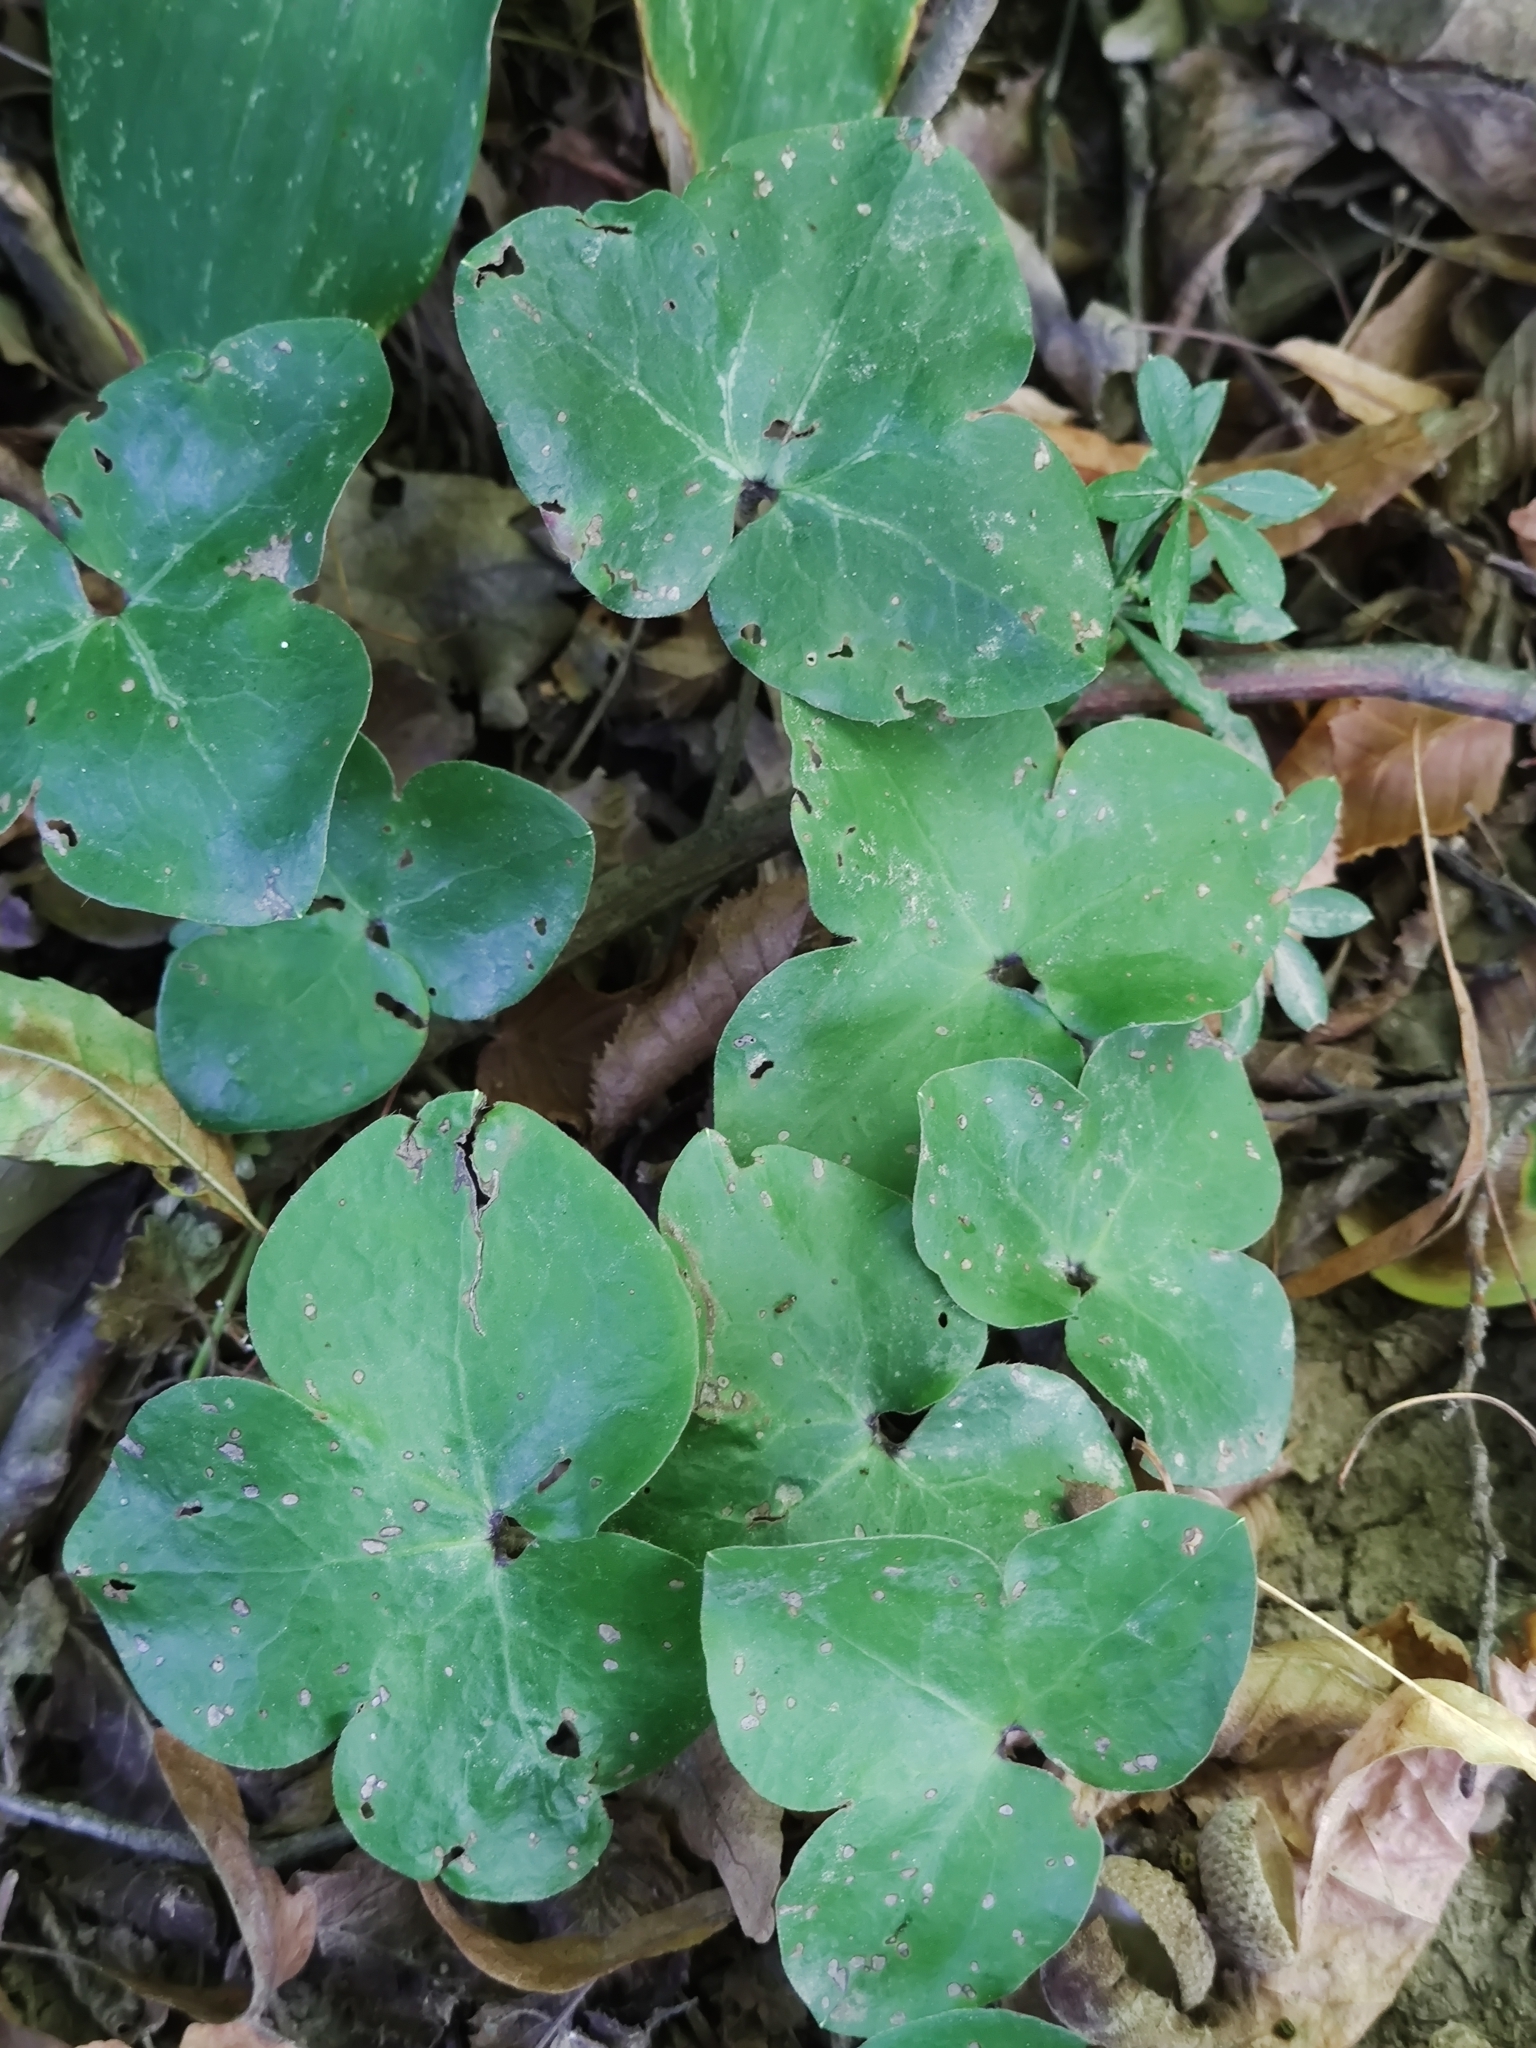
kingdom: Plantae
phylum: Tracheophyta
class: Magnoliopsida
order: Ranunculales
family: Ranunculaceae
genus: Hepatica
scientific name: Hepatica nobilis
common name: Liverleaf
